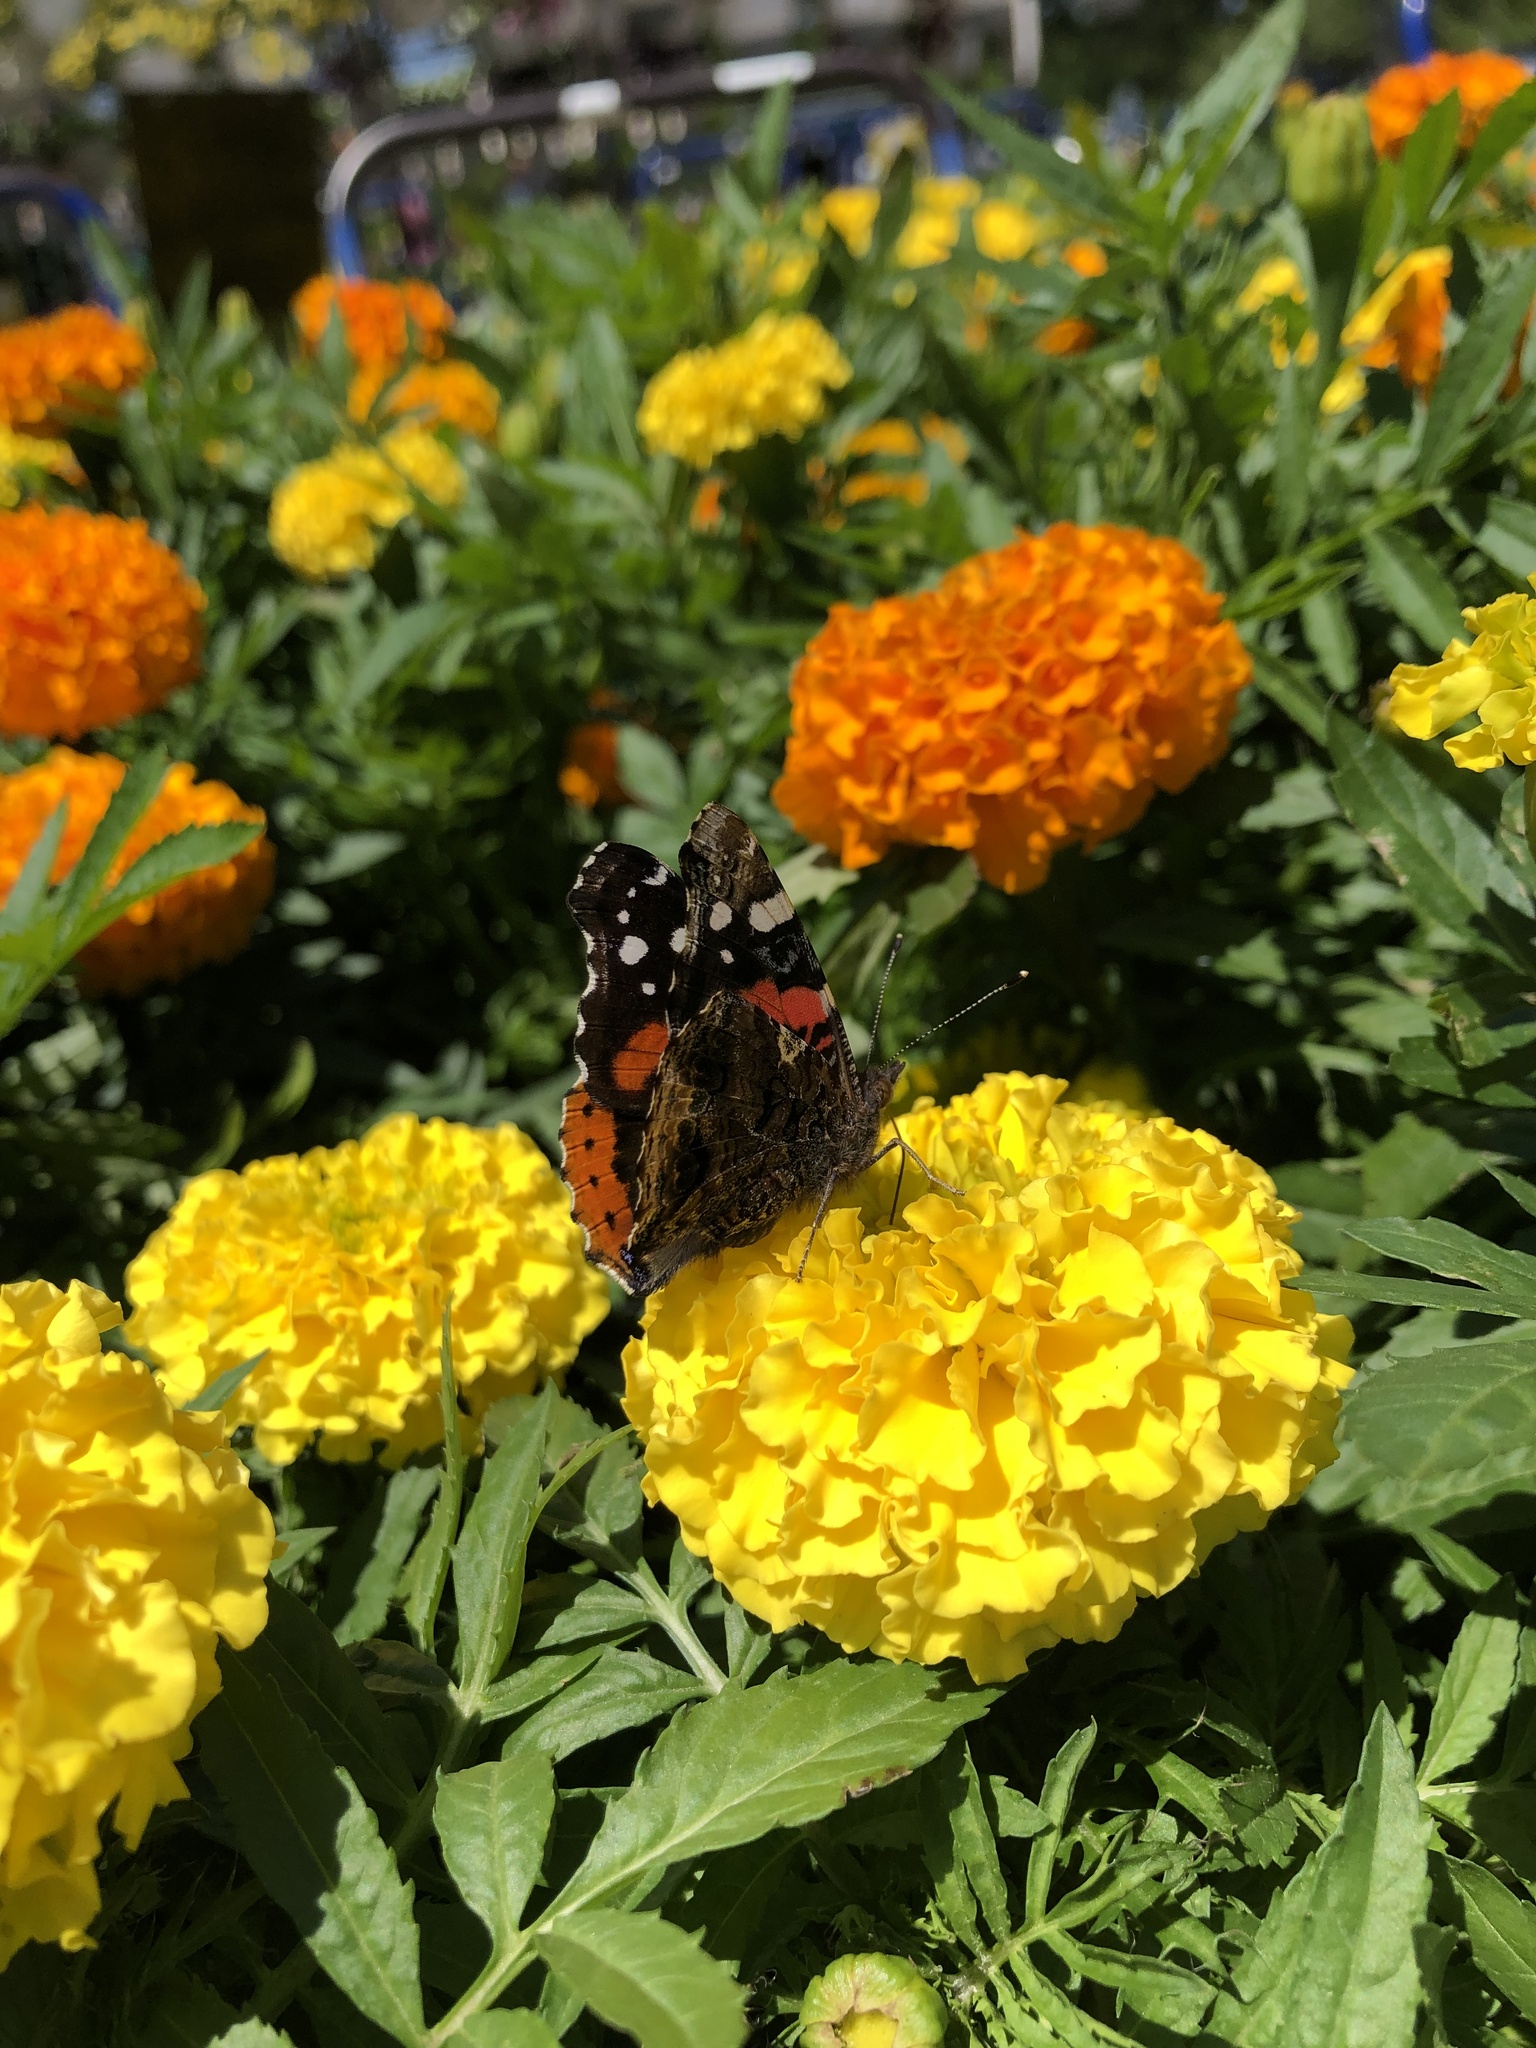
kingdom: Animalia
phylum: Arthropoda
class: Insecta
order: Lepidoptera
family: Nymphalidae
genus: Vanessa
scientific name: Vanessa atalanta
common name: Red admiral
